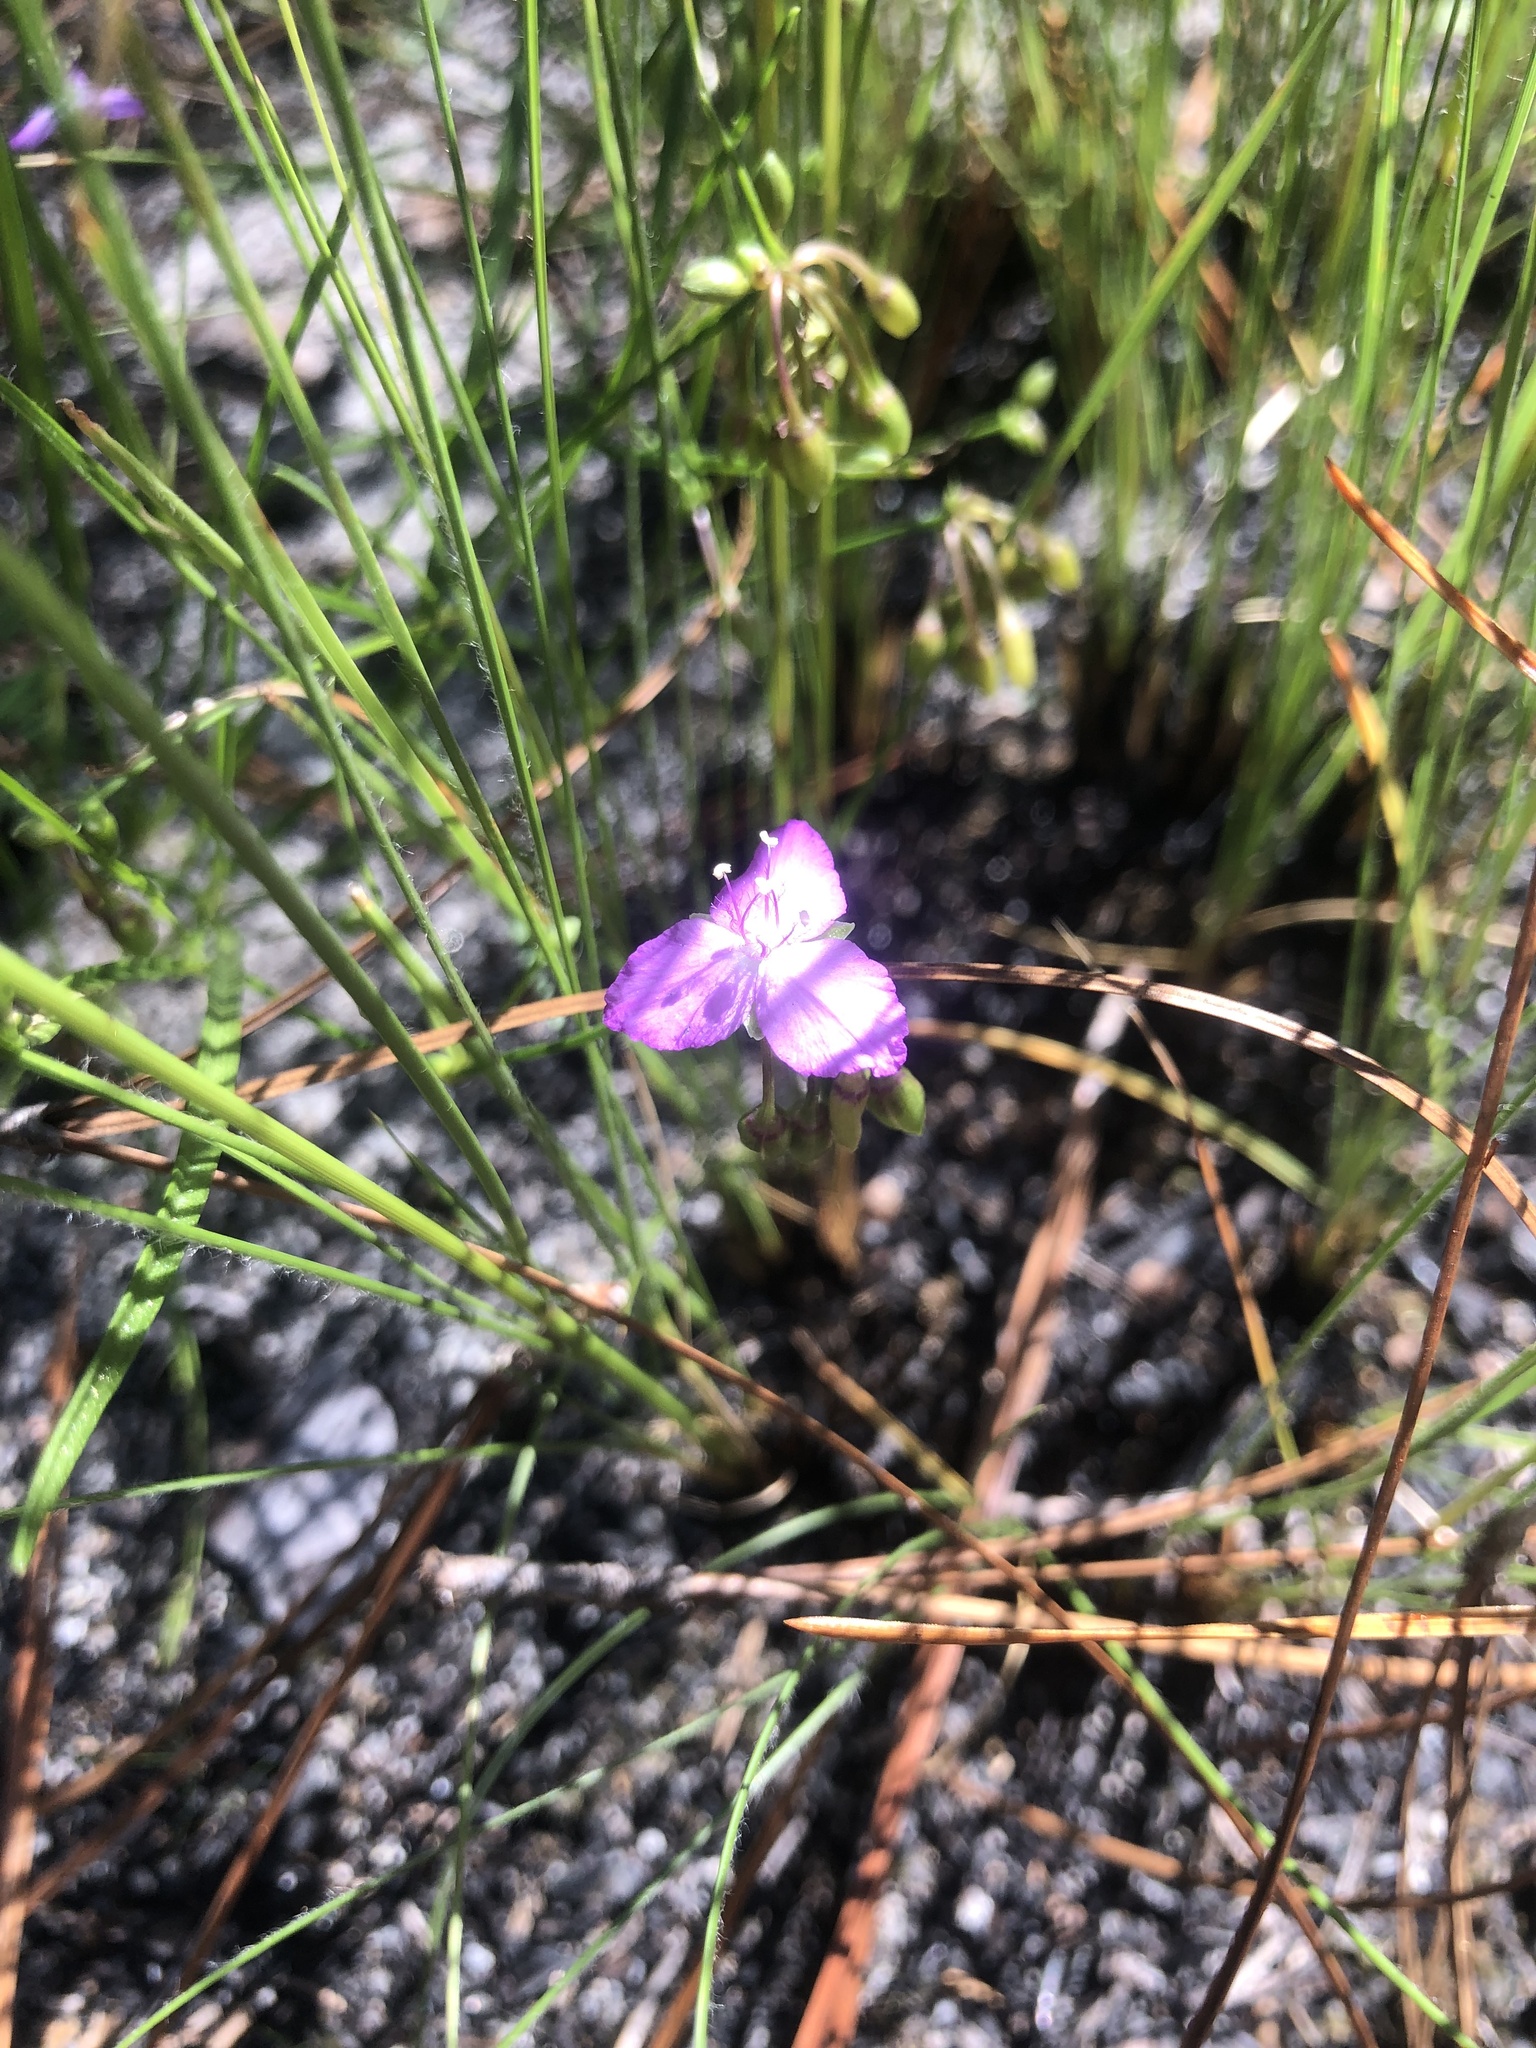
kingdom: Plantae
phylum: Tracheophyta
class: Liliopsida
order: Commelinales
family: Commelinaceae
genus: Callisia
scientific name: Callisia graminea
